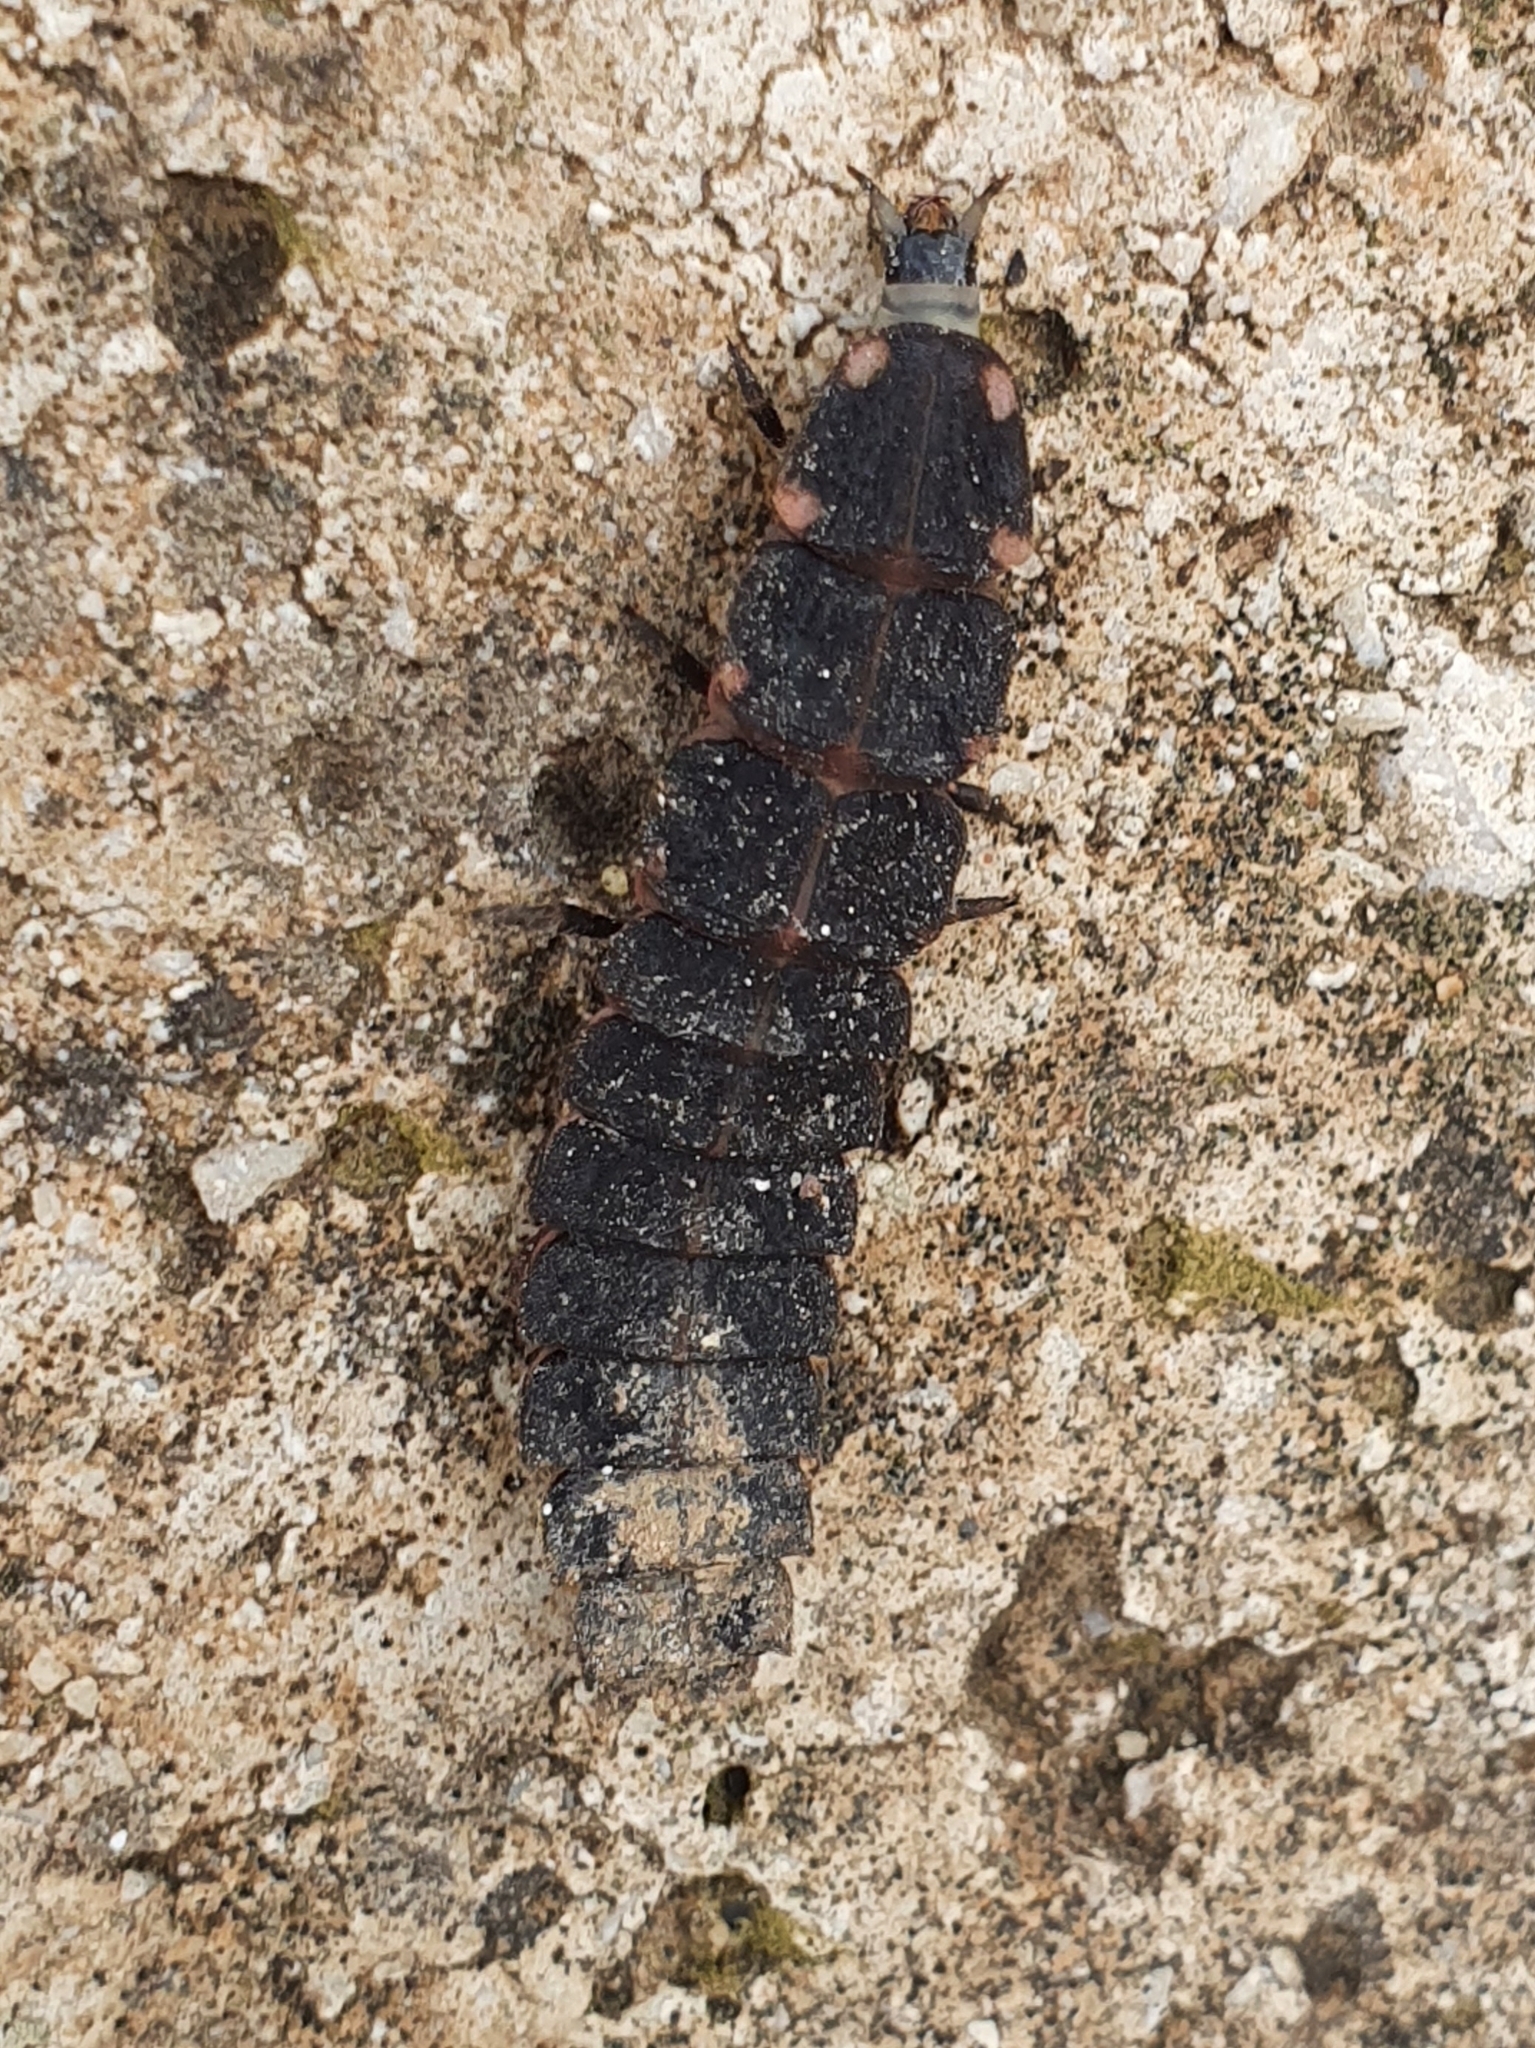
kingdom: Animalia
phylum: Arthropoda
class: Insecta
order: Coleoptera
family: Lampyridae
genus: Pelania
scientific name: Pelania mauritanica
